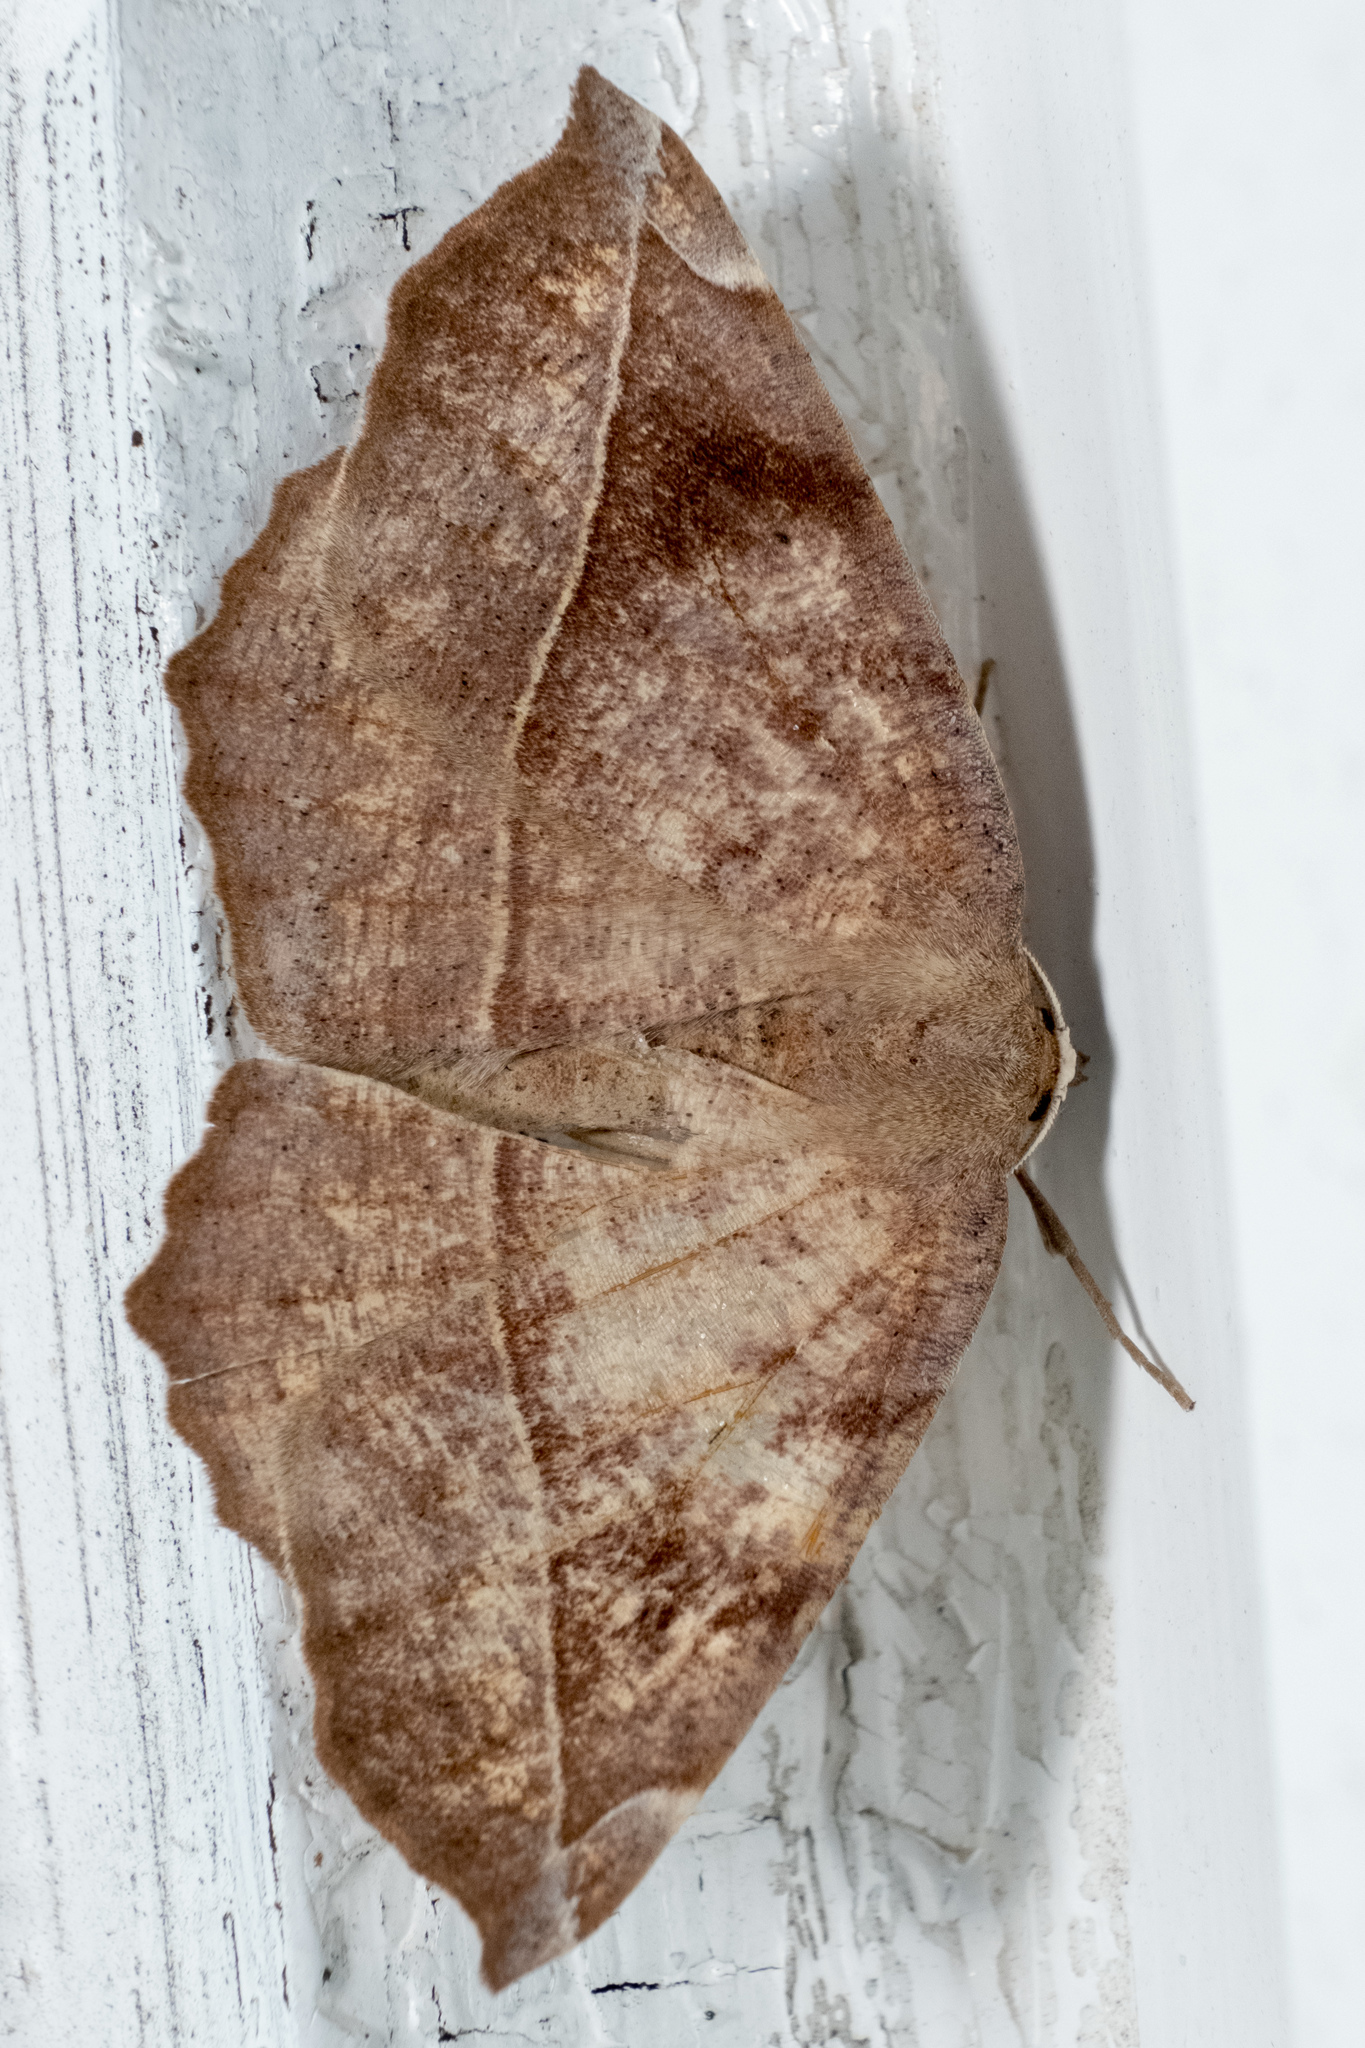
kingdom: Animalia
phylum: Arthropoda
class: Insecta
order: Lepidoptera
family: Geometridae
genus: Eutrapela
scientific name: Eutrapela clemataria
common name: Curved-toothed geometer
